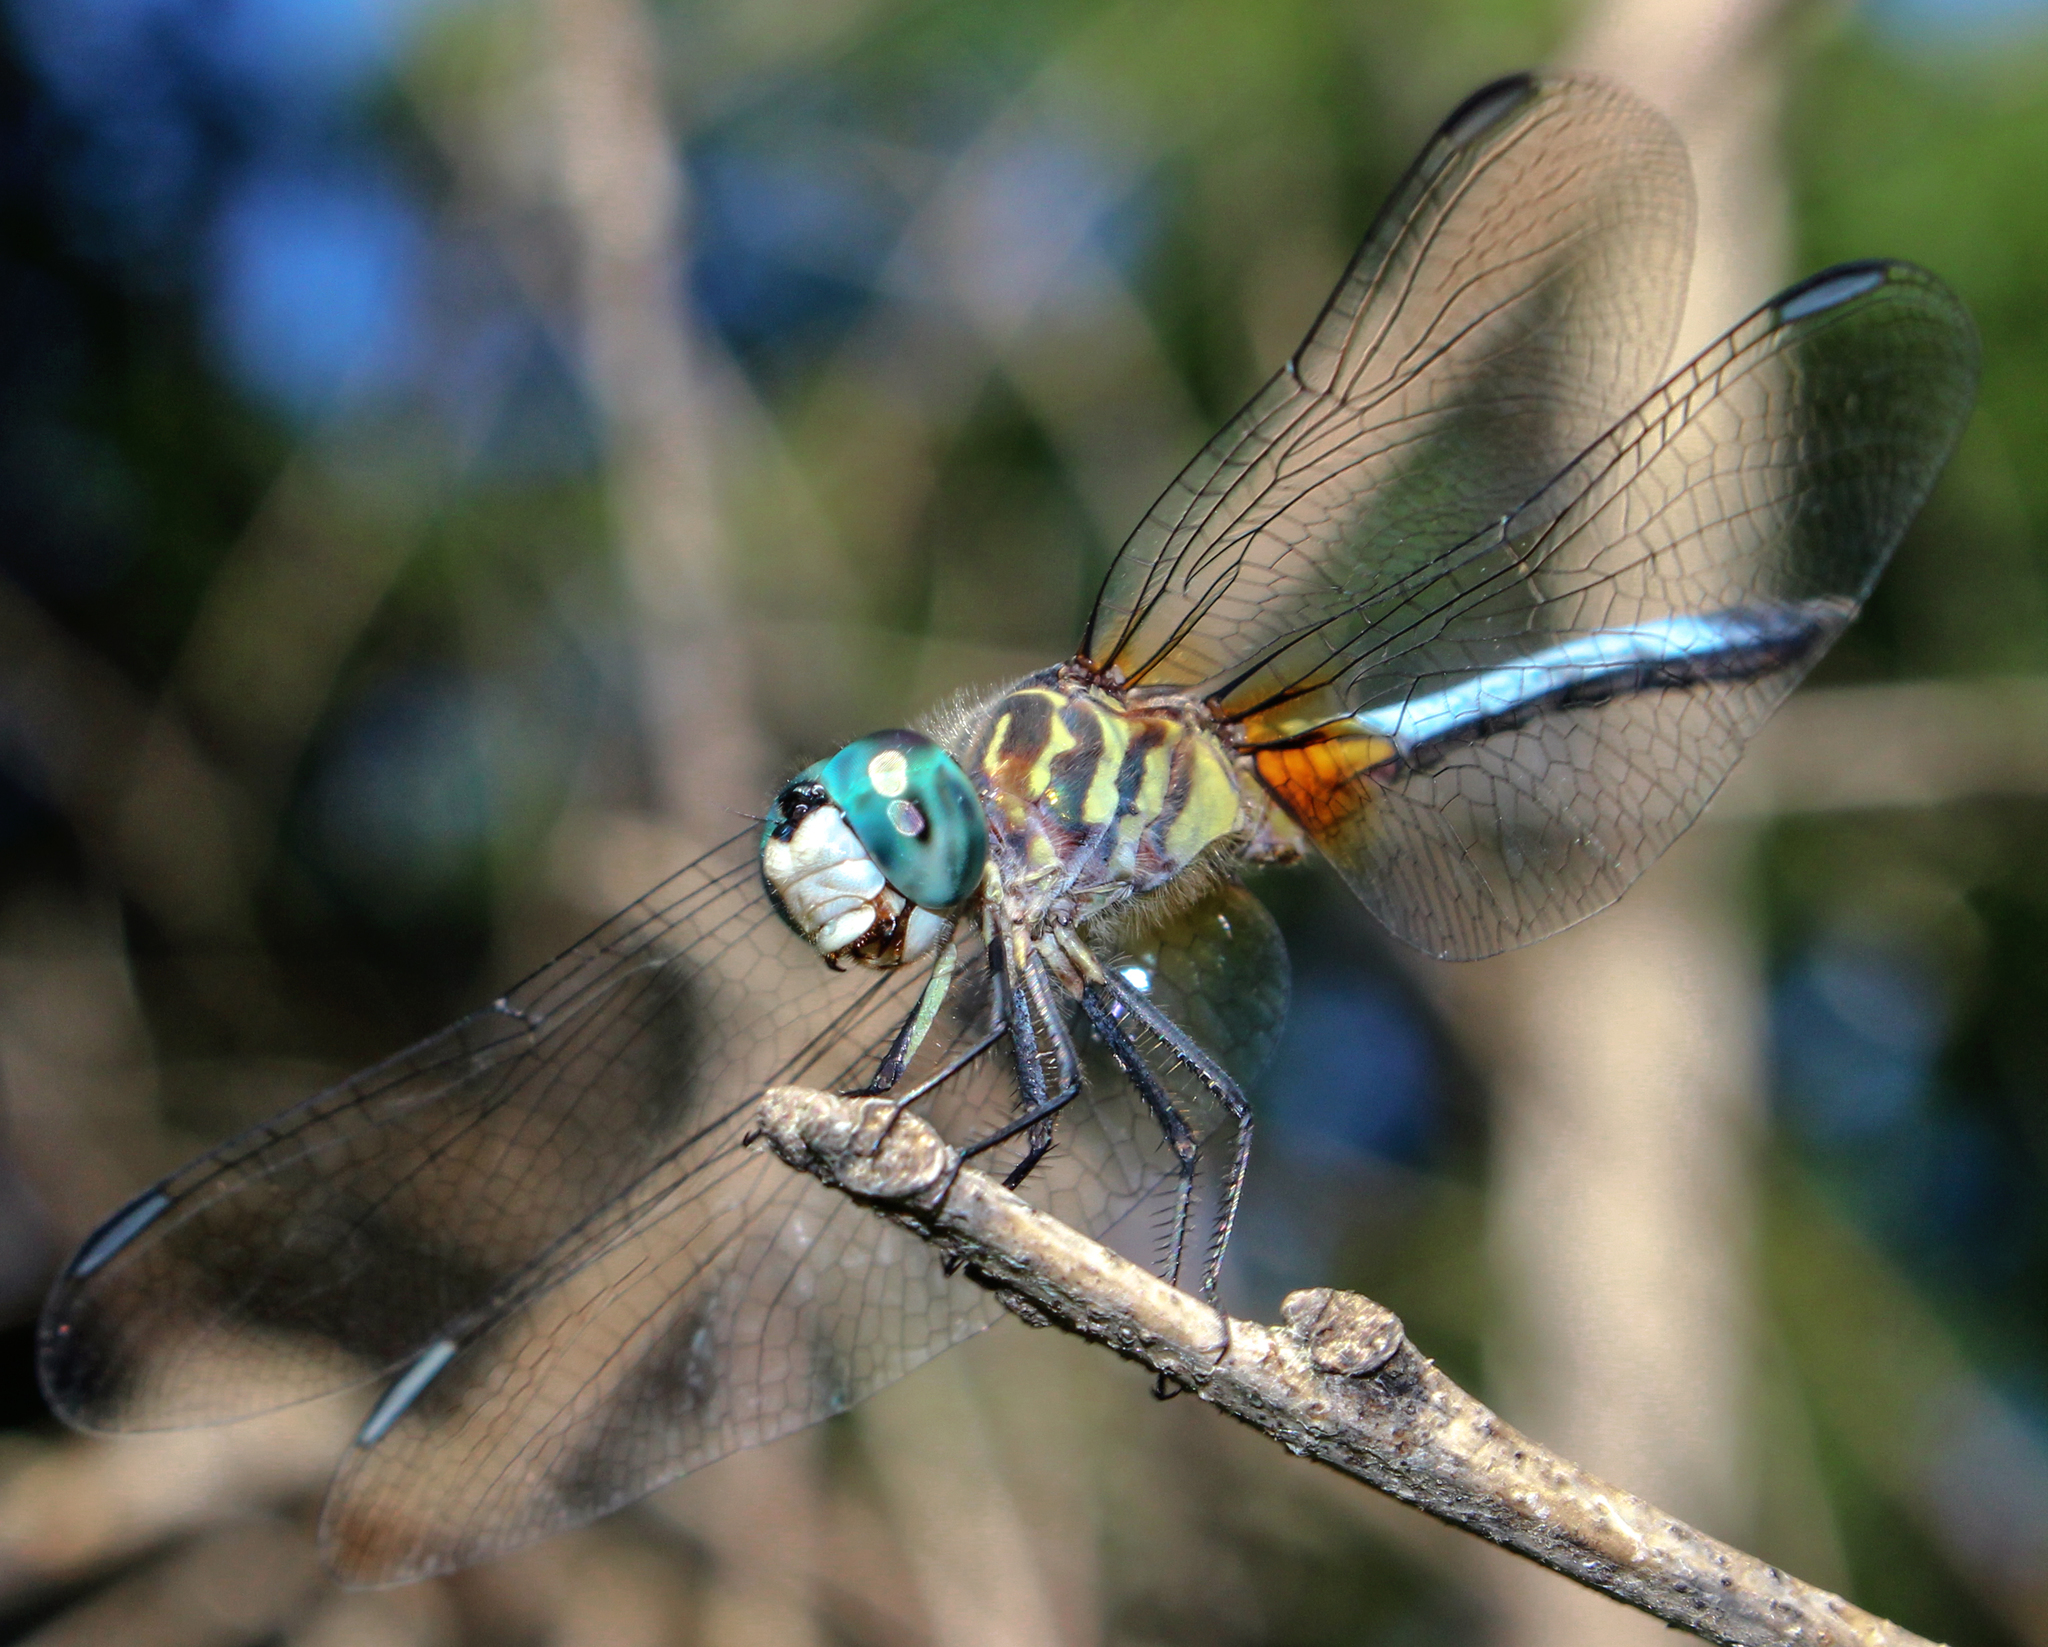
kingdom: Animalia
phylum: Arthropoda
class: Insecta
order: Odonata
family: Libellulidae
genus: Pachydiplax
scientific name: Pachydiplax longipennis
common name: Blue dasher
